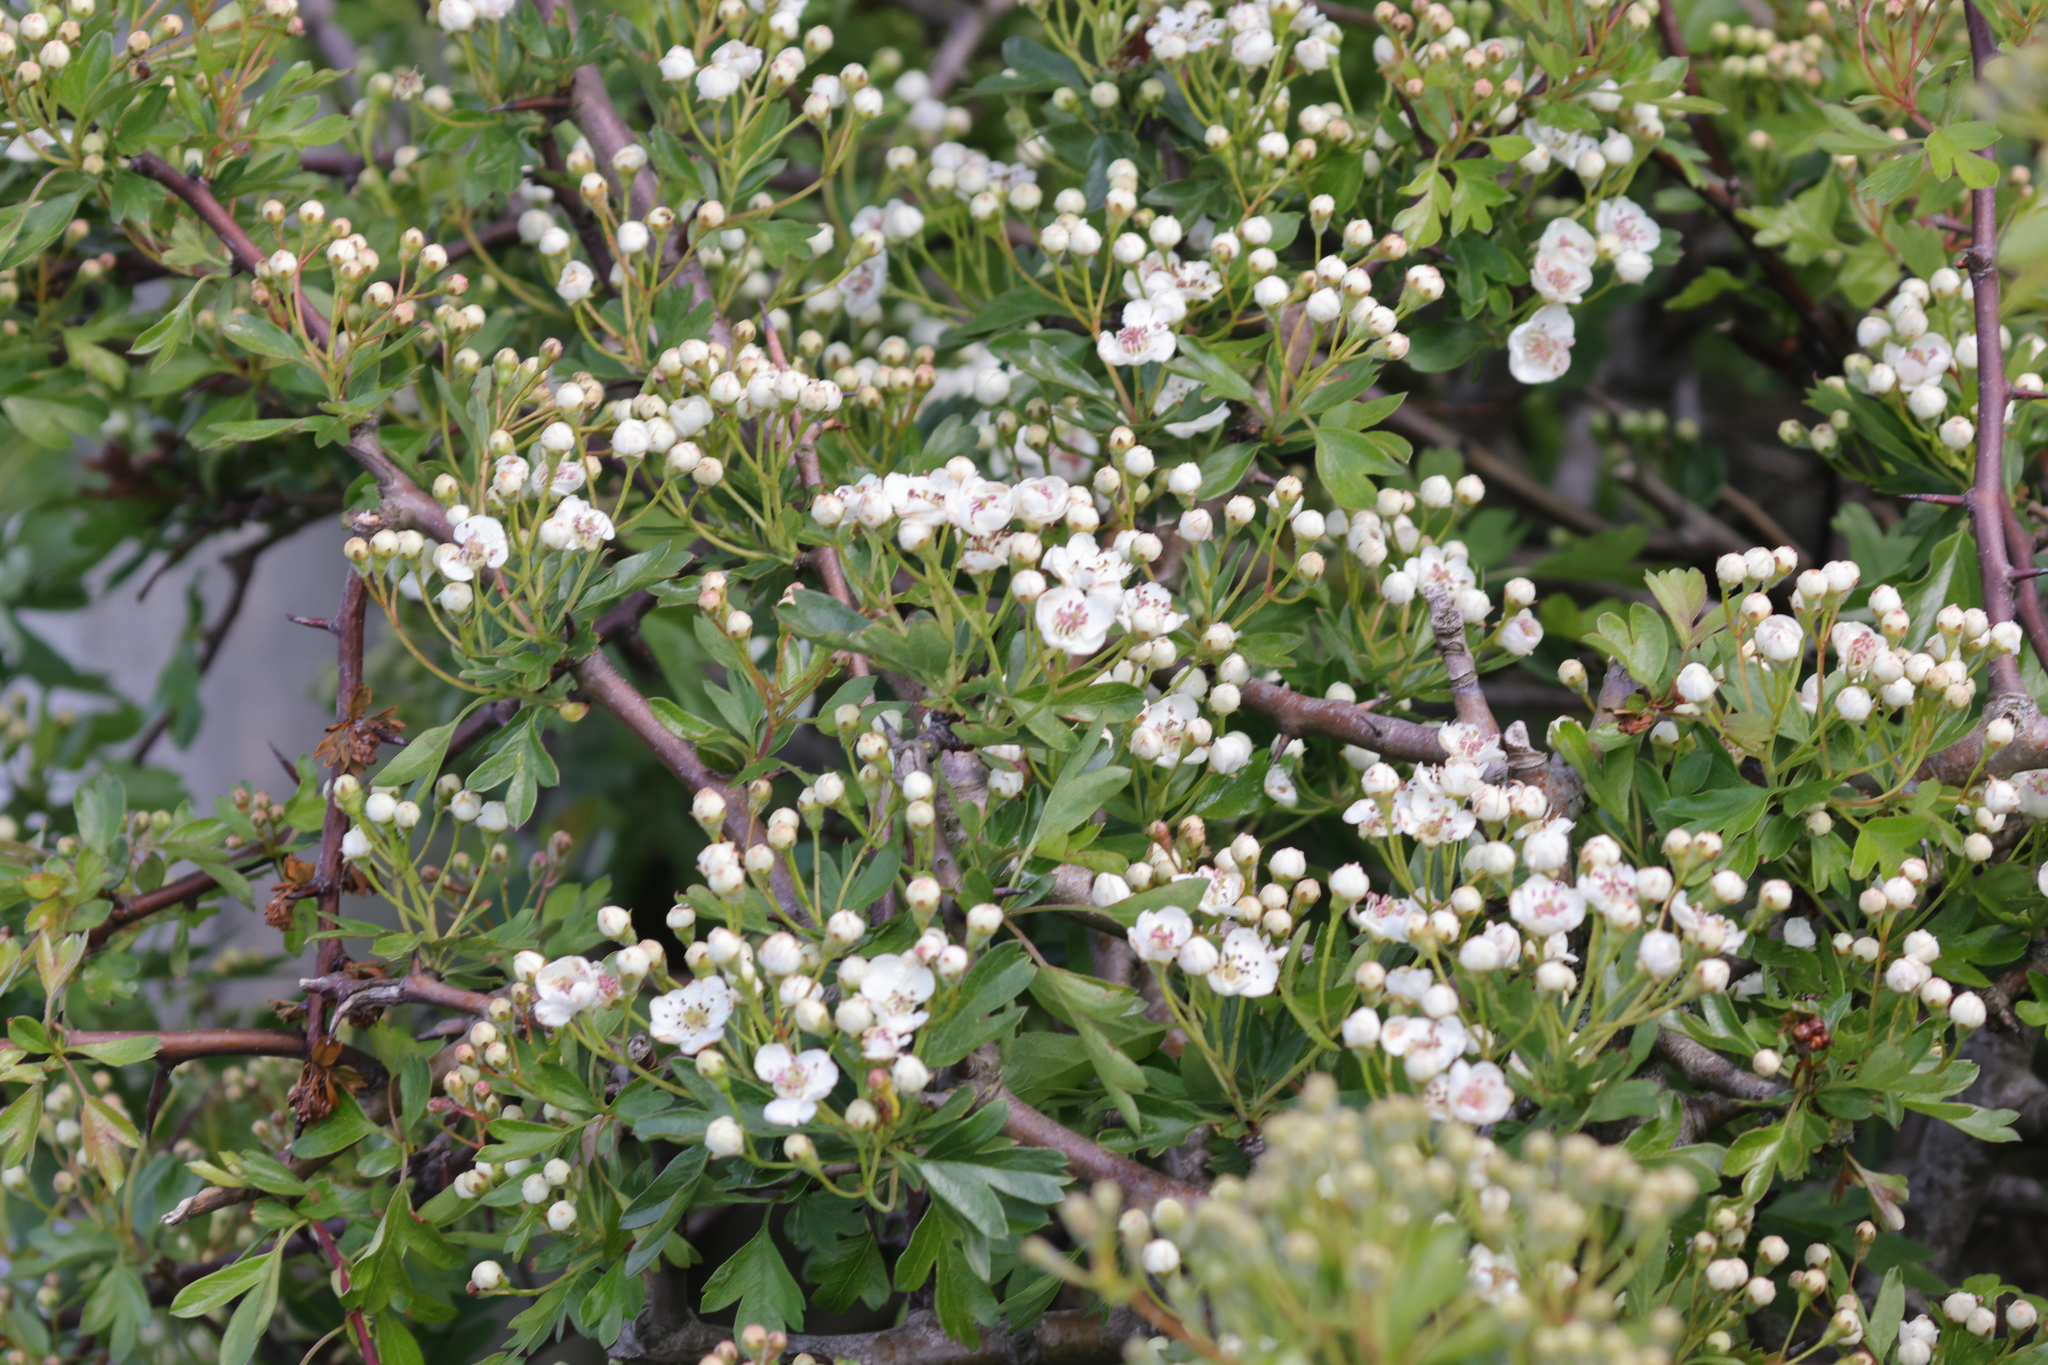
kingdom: Plantae
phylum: Tracheophyta
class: Magnoliopsida
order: Rosales
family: Rosaceae
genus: Crataegus
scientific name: Crataegus monogyna
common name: Hawthorn
